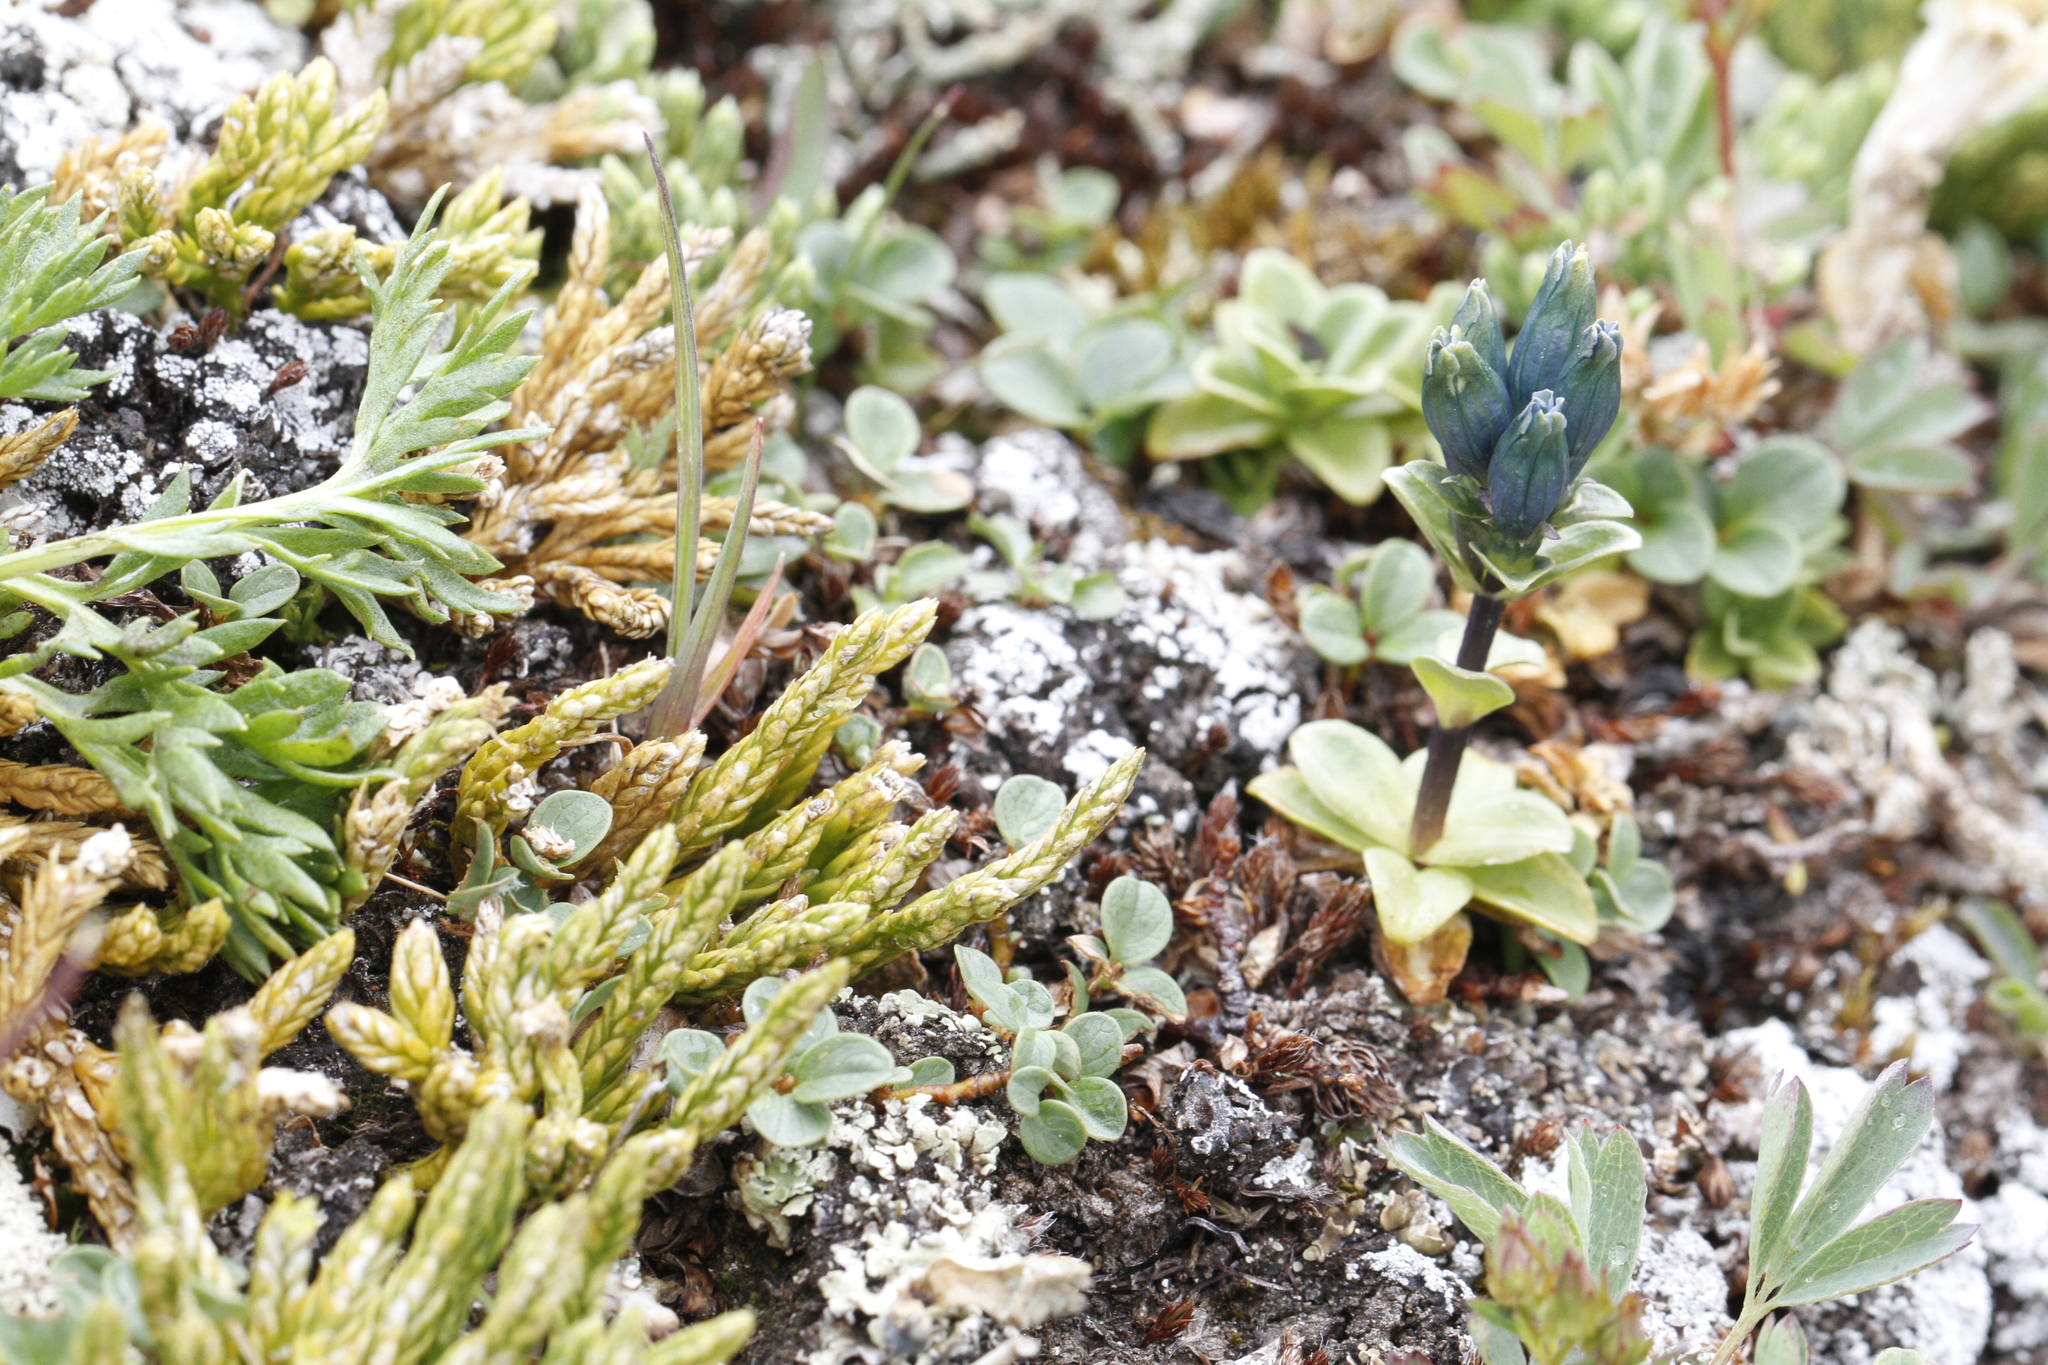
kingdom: Plantae
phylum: Tracheophyta
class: Magnoliopsida
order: Gentianales
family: Gentianaceae
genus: Gentiana
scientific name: Gentiana glauca
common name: Alpine gentian
